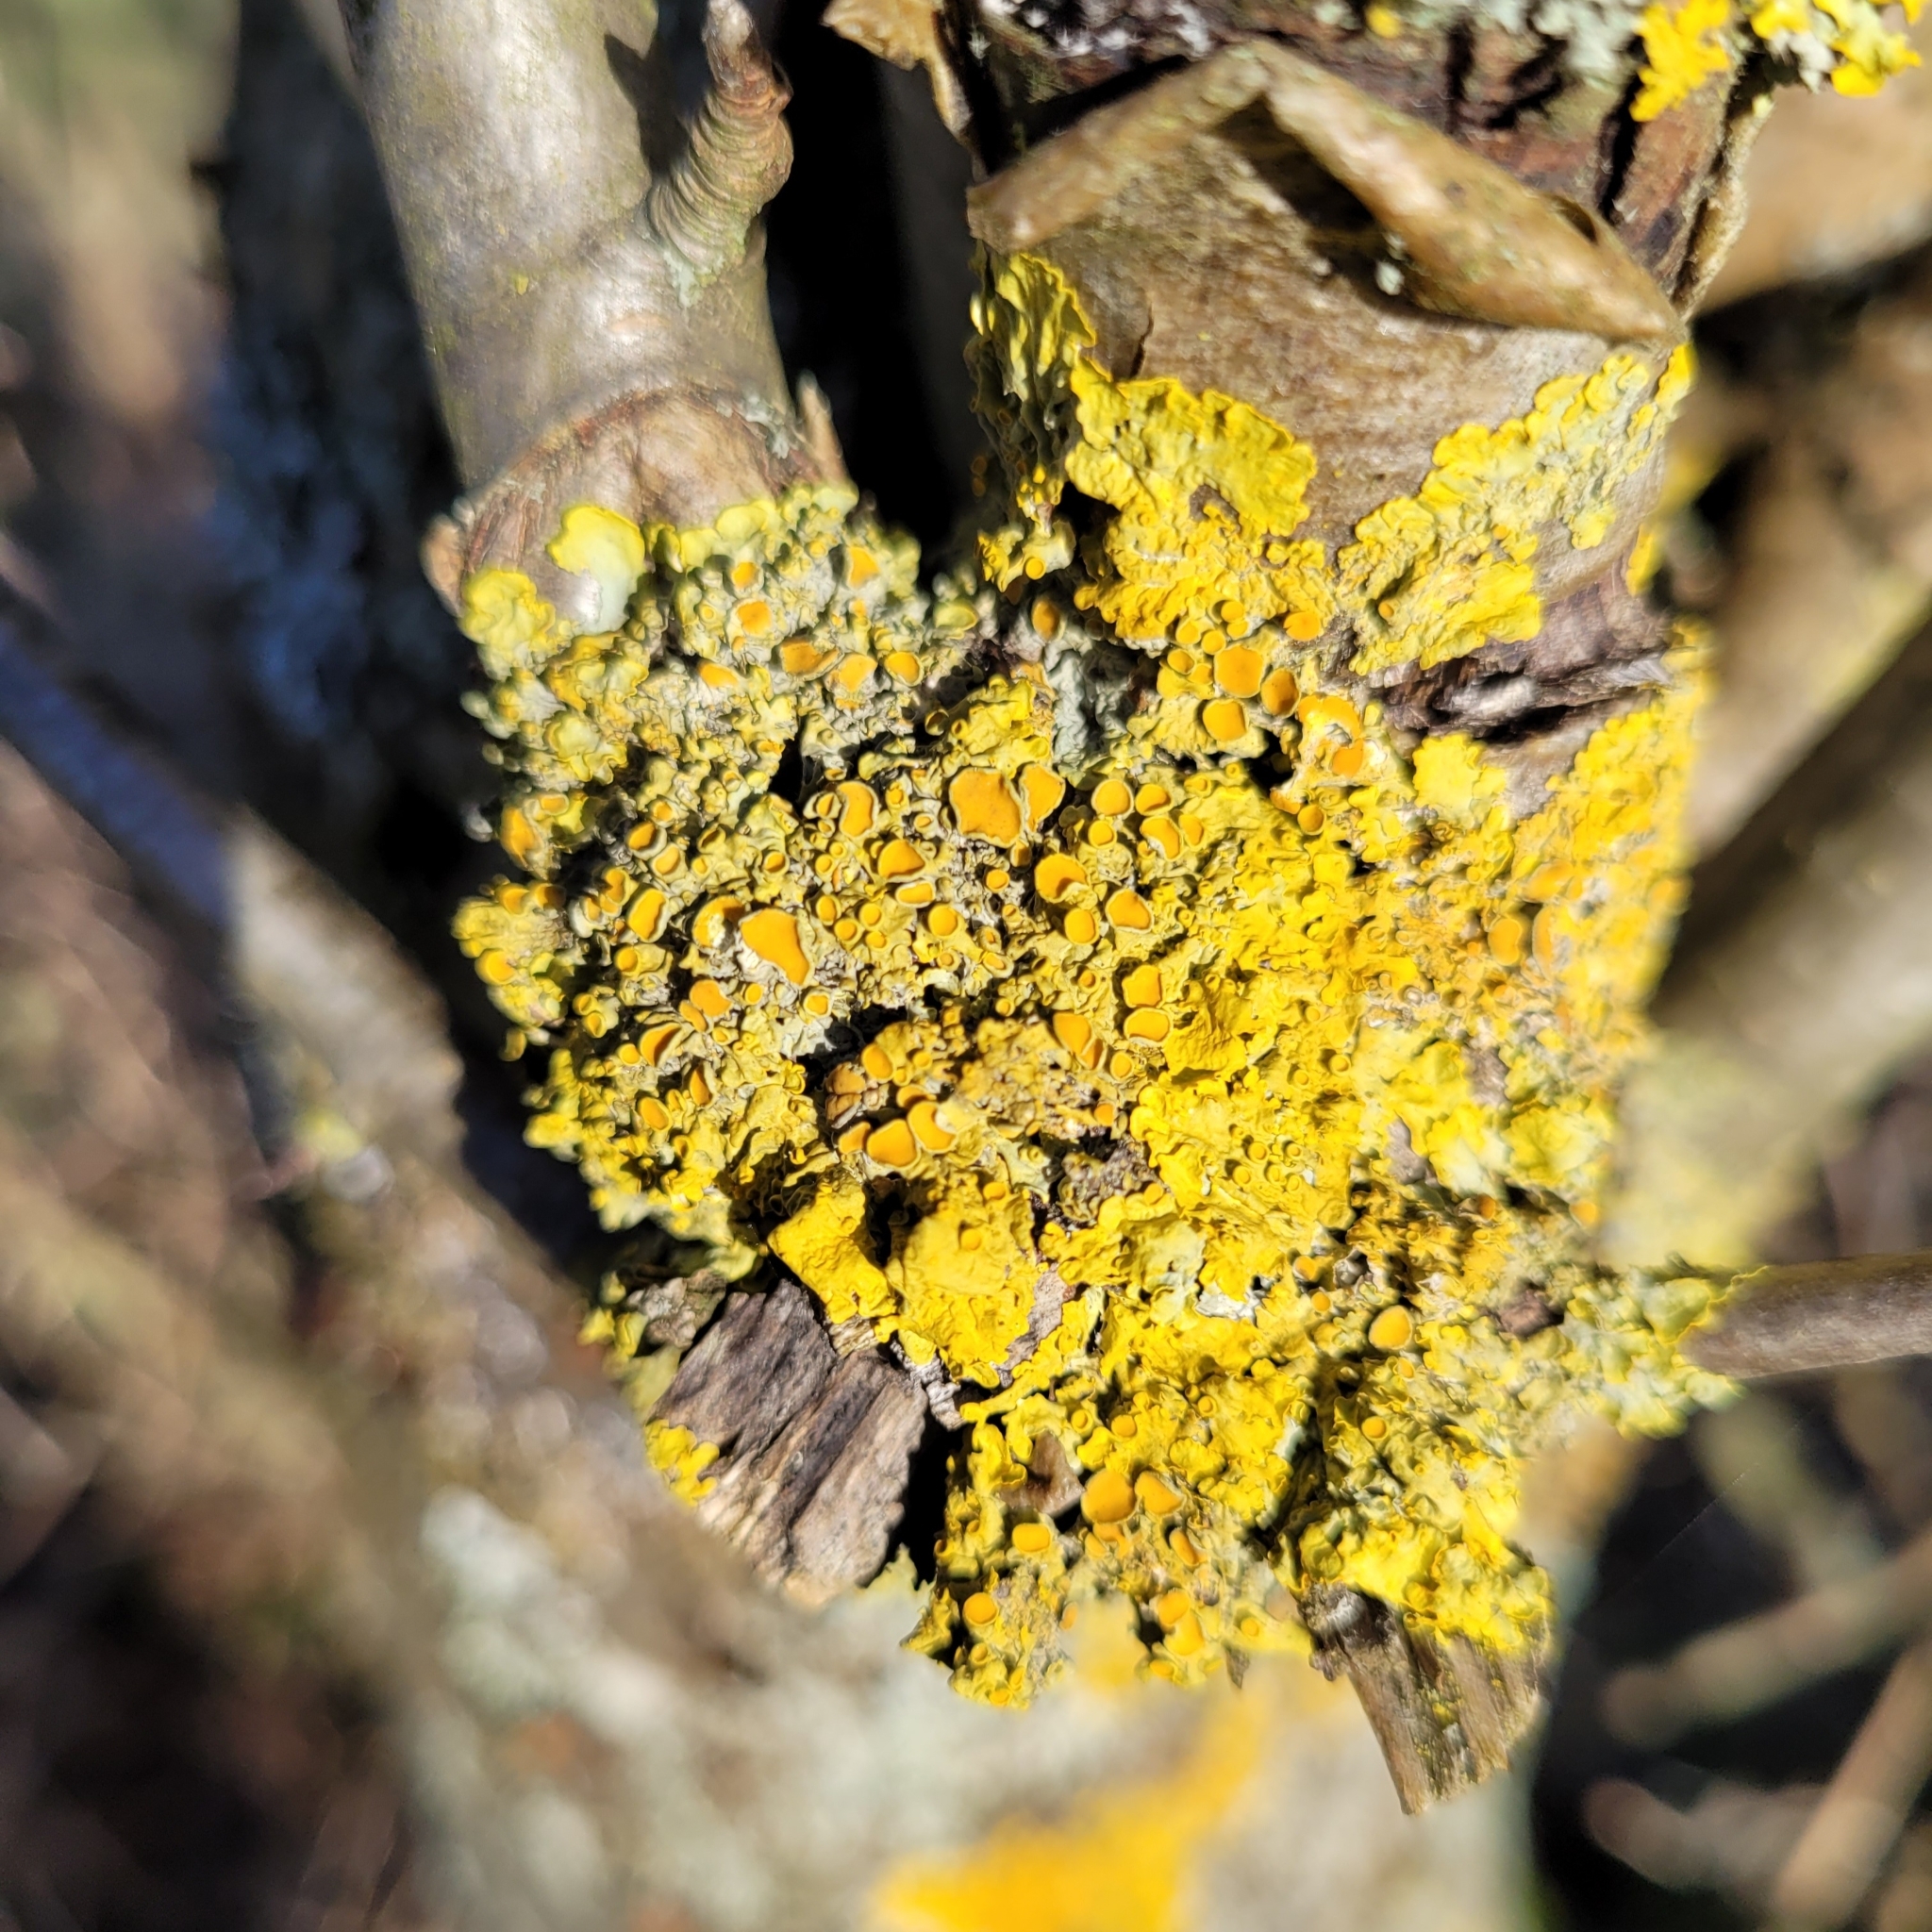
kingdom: Fungi
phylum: Ascomycota
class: Lecanoromycetes
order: Teloschistales
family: Teloschistaceae
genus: Xanthoria
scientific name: Xanthoria parietina
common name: Common orange lichen
